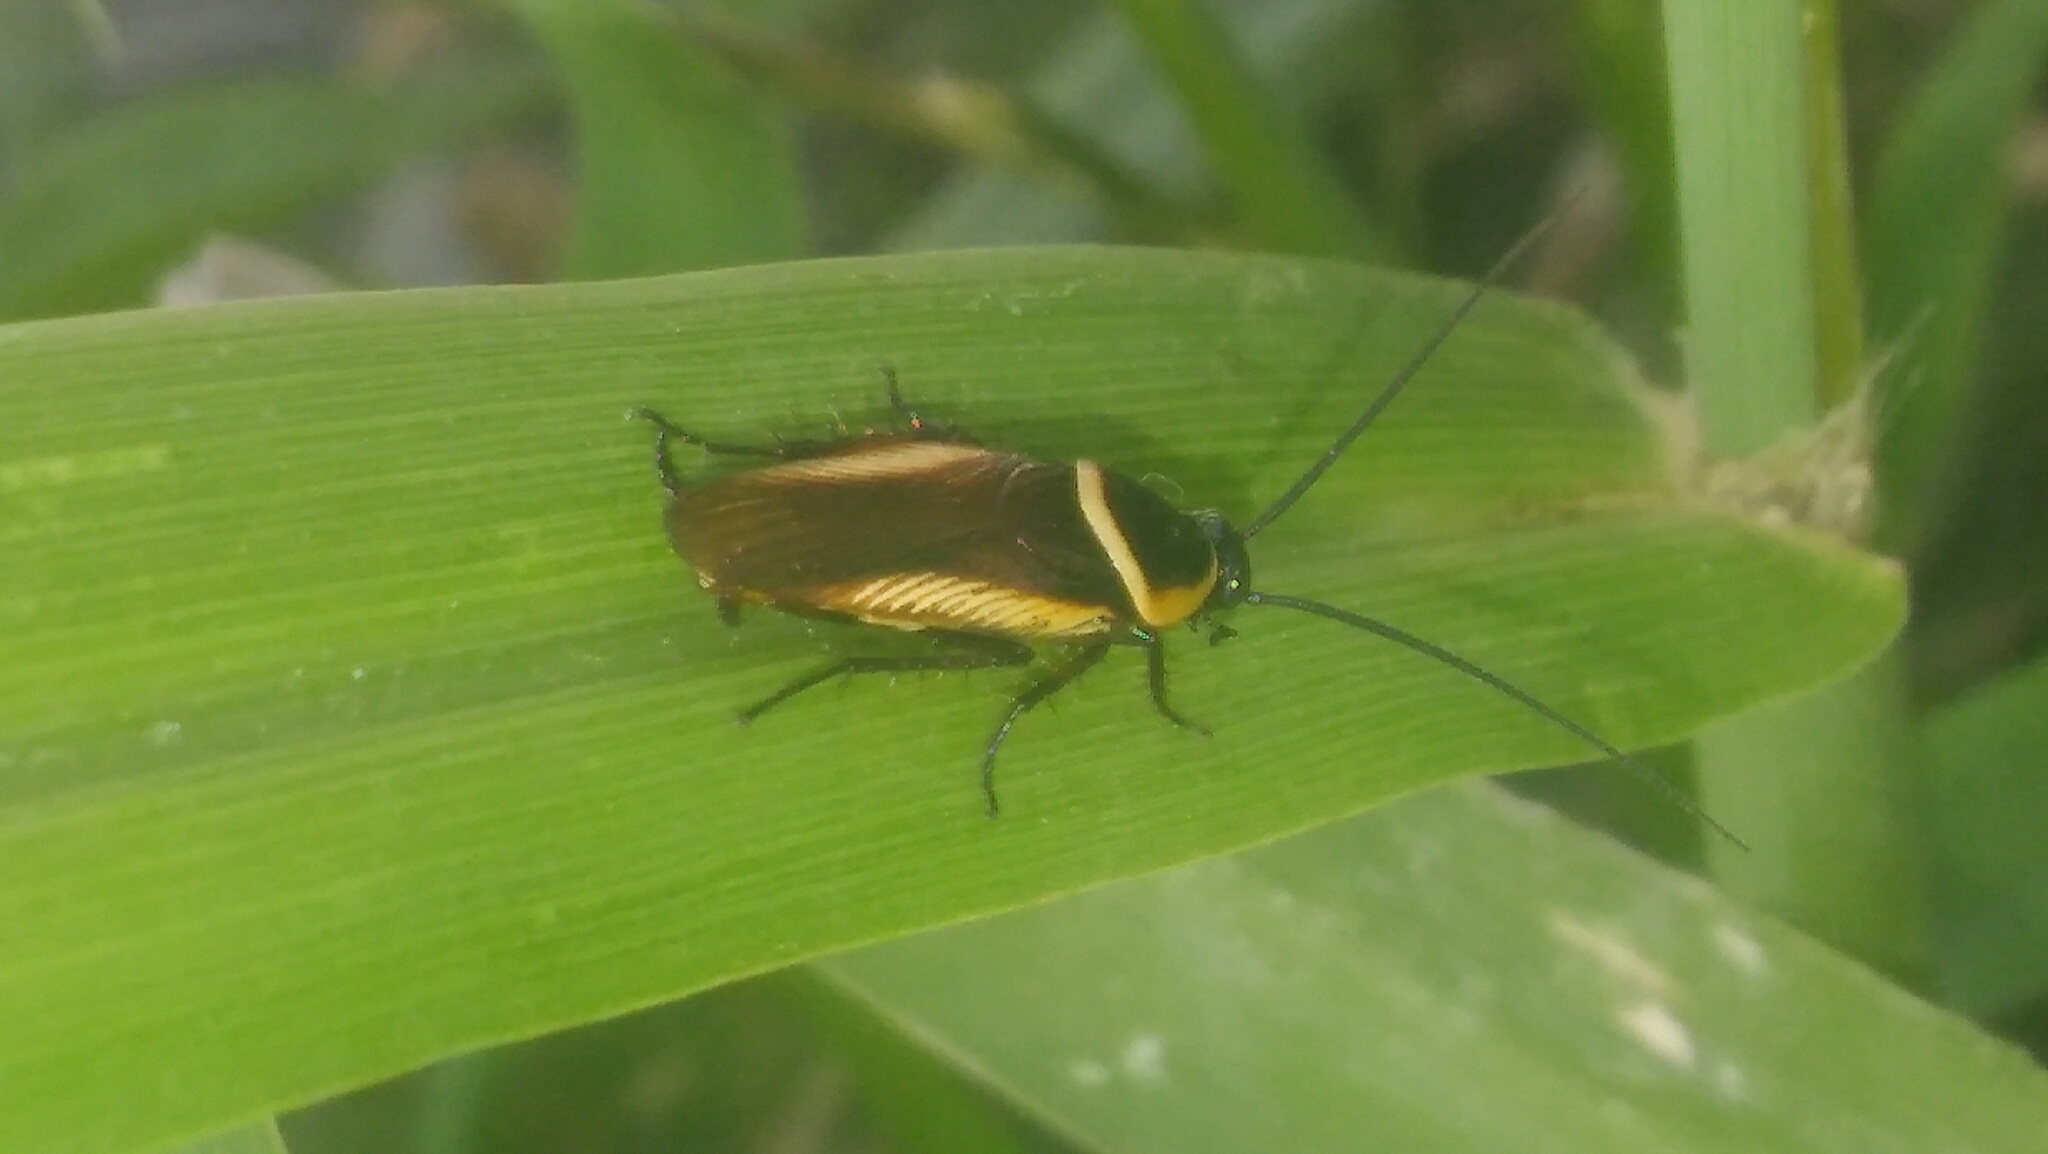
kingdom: Animalia
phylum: Arthropoda
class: Insecta
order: Blattodea
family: Ectobiidae
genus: Pseudomops
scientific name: Pseudomops neglectus
